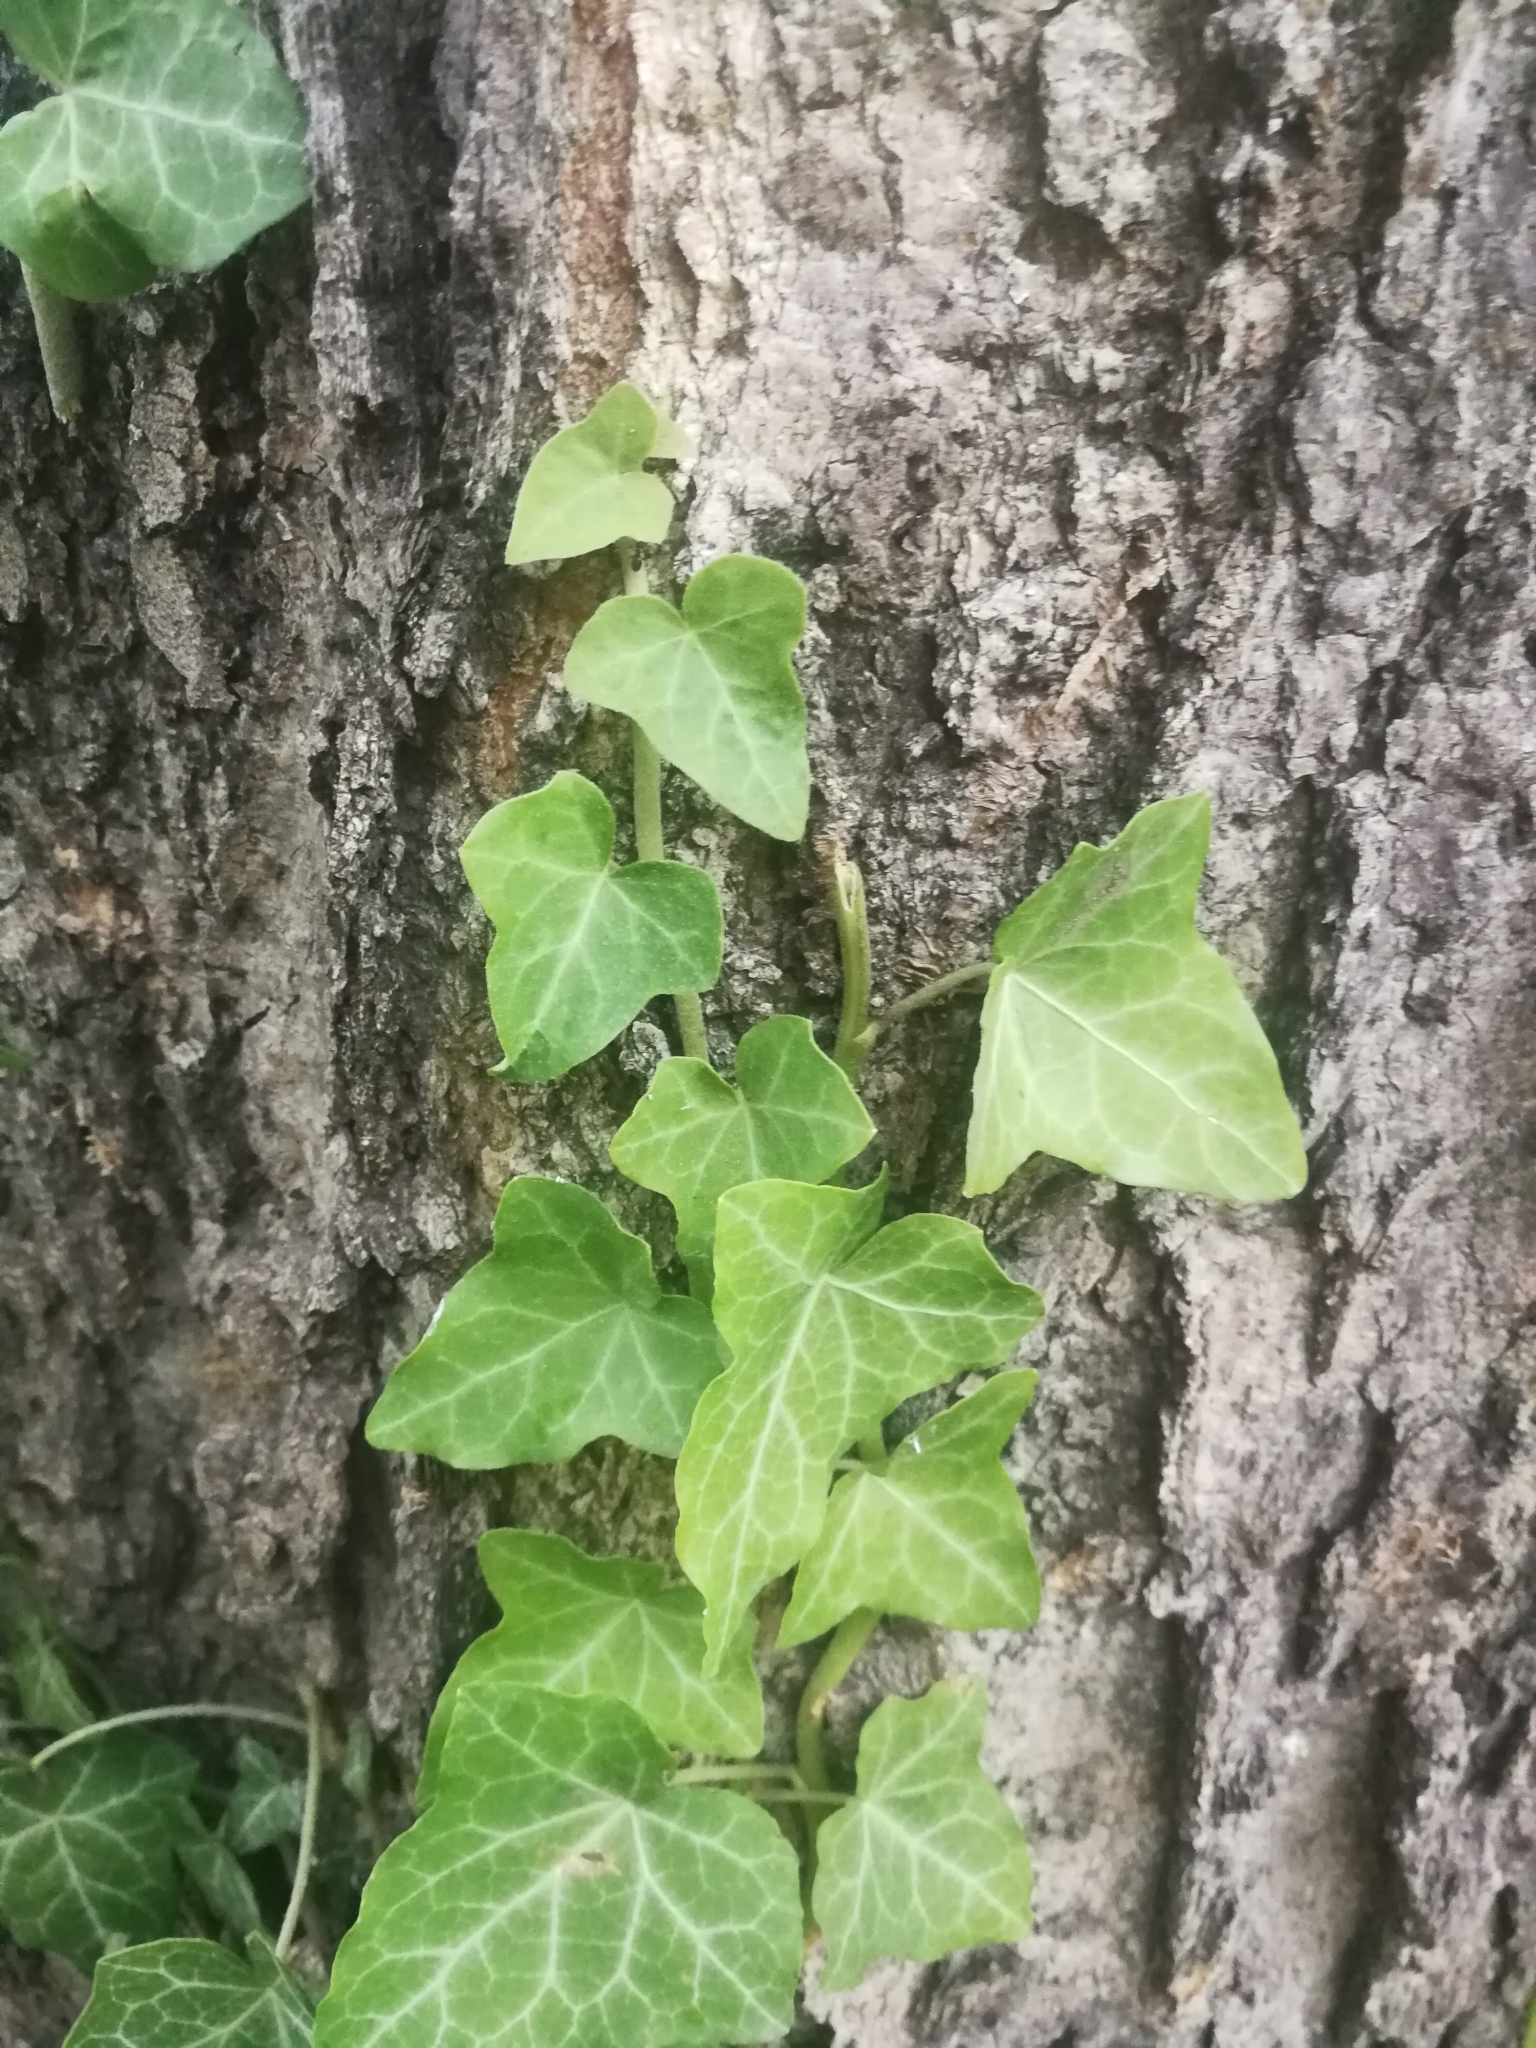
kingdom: Plantae
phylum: Tracheophyta
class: Magnoliopsida
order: Apiales
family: Araliaceae
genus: Hedera
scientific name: Hedera helix
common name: Ivy
